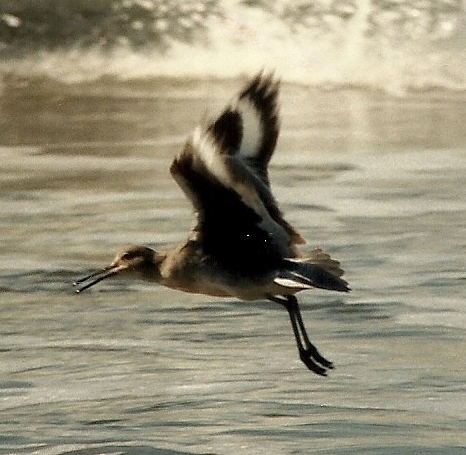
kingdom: Animalia
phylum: Chordata
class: Aves
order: Charadriiformes
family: Scolopacidae
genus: Tringa
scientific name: Tringa semipalmata
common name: Willet
